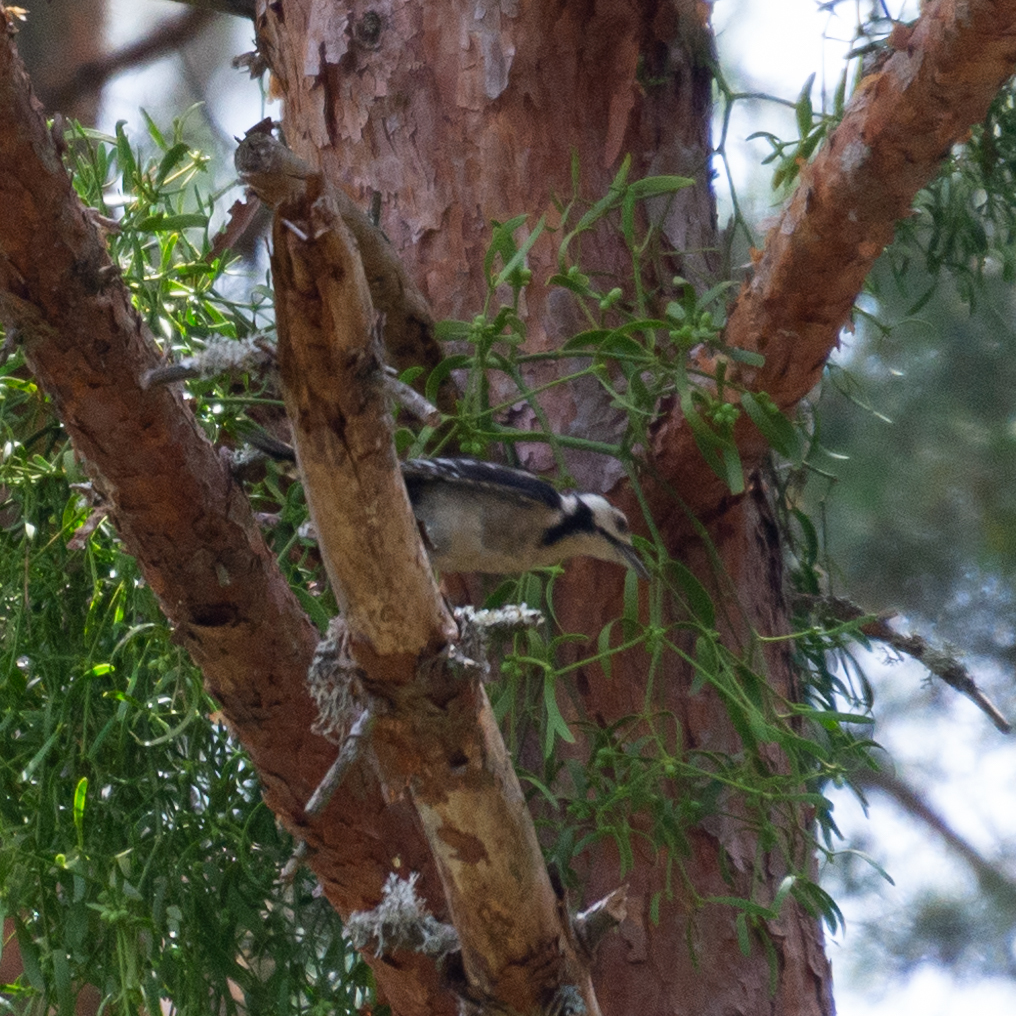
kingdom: Animalia
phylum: Chordata
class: Aves
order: Piciformes
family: Picidae
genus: Dendrocopos
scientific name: Dendrocopos major
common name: Great spotted woodpecker
